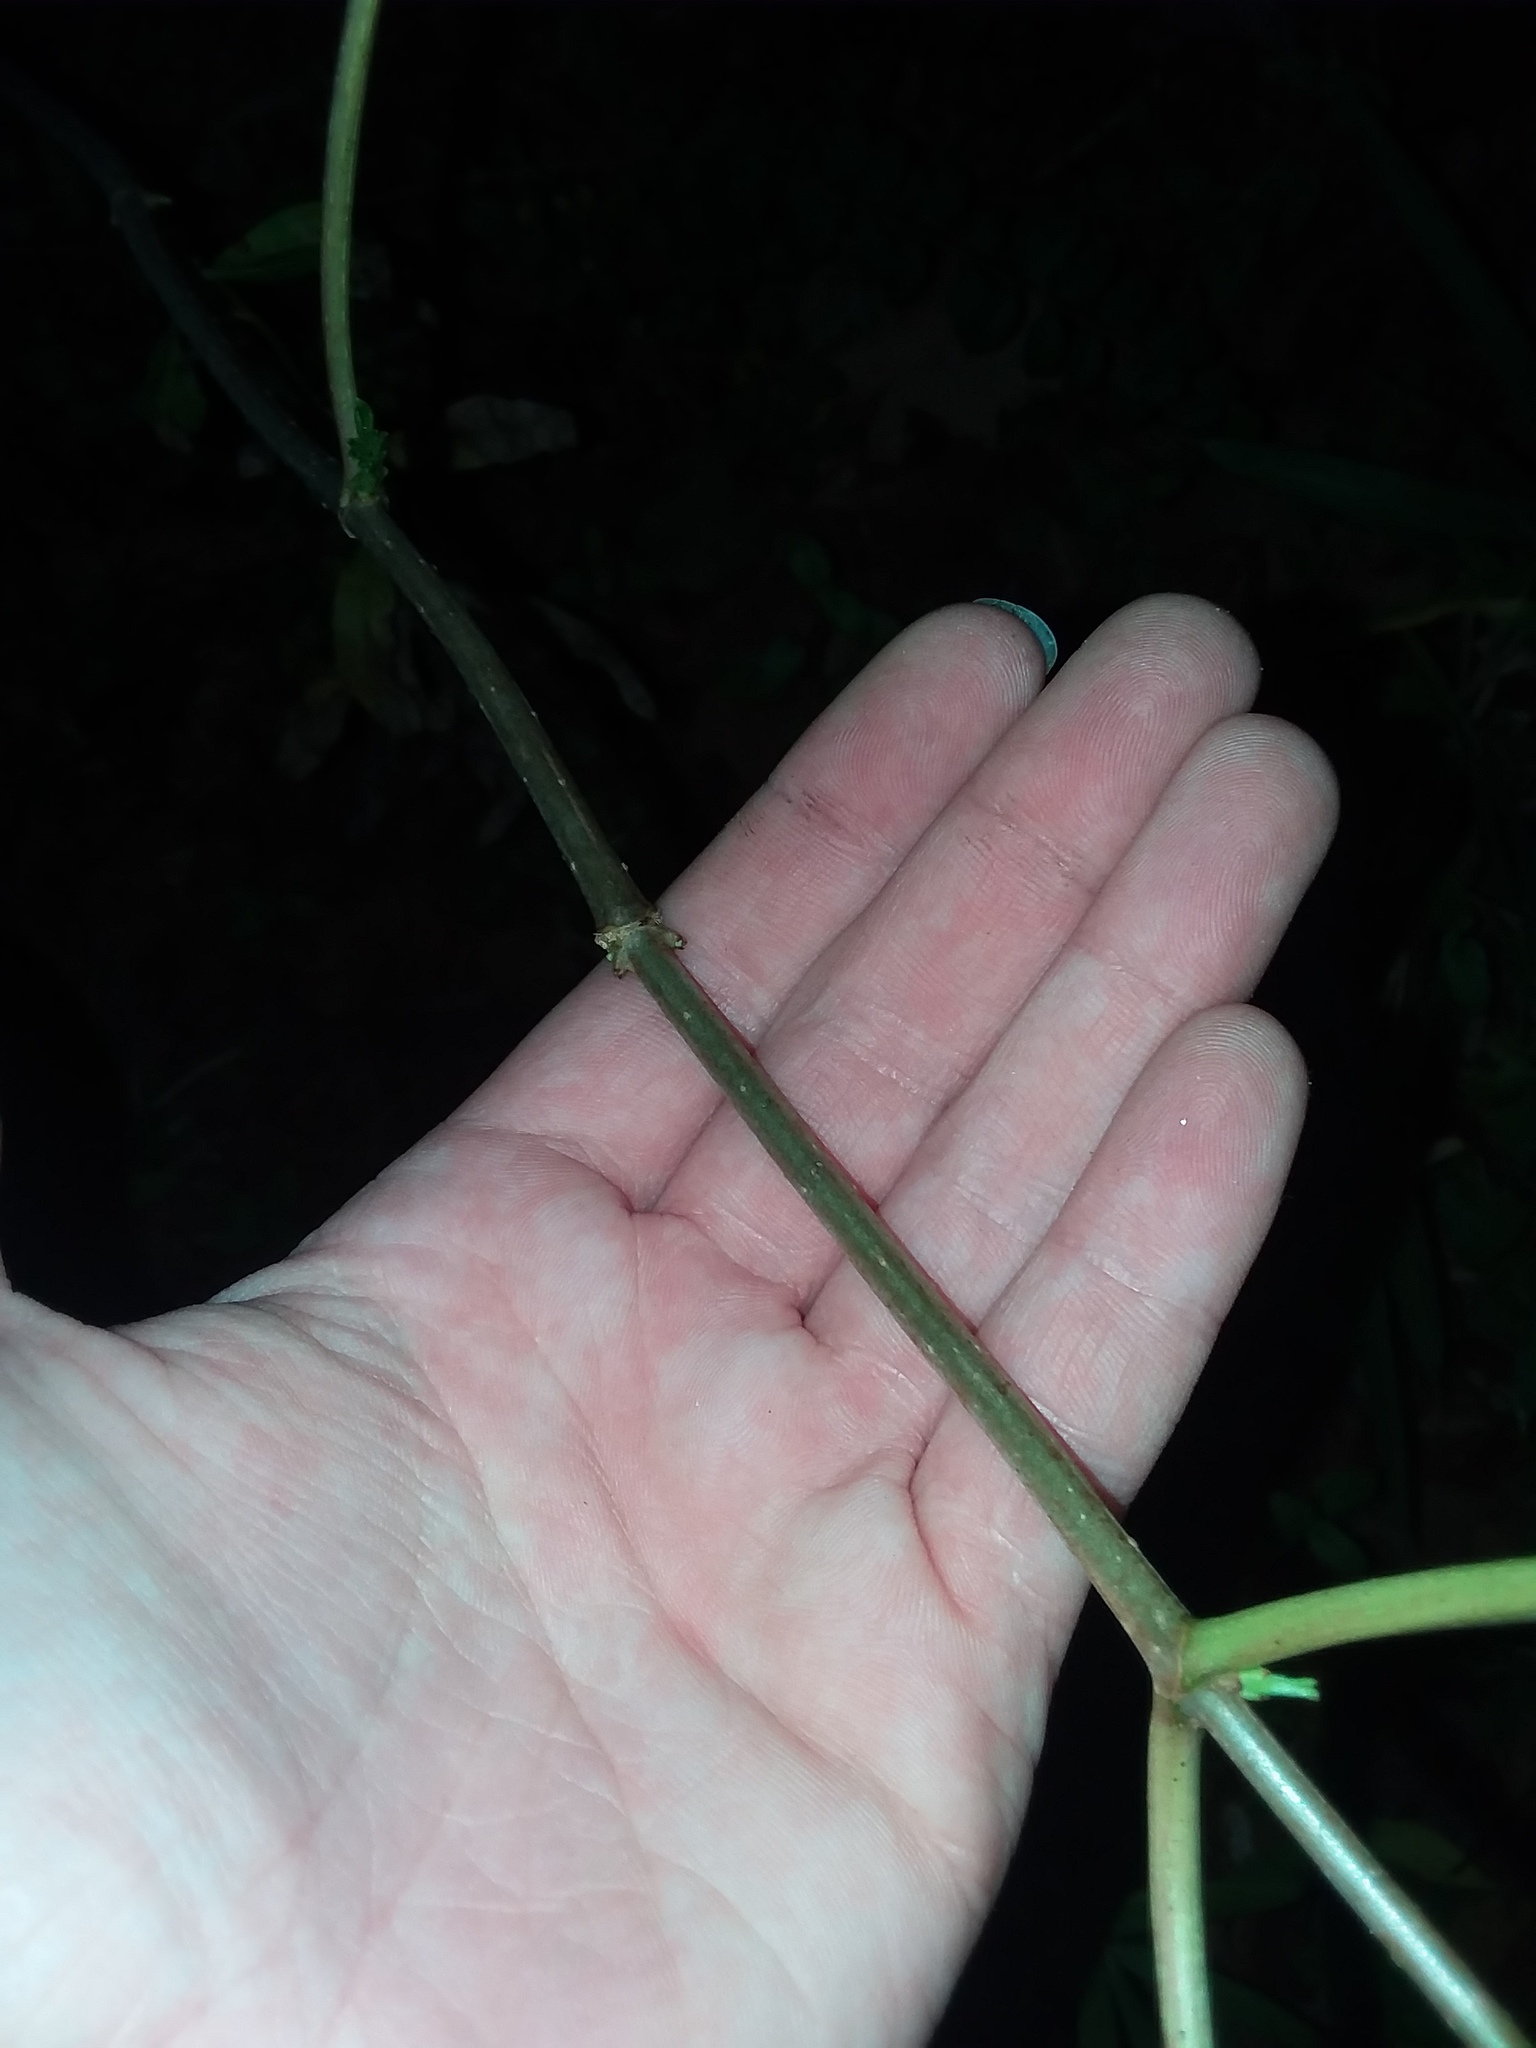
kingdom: Plantae
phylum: Tracheophyta
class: Magnoliopsida
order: Dipsacales
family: Viburnaceae
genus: Sambucus
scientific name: Sambucus canadensis
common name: American elder
